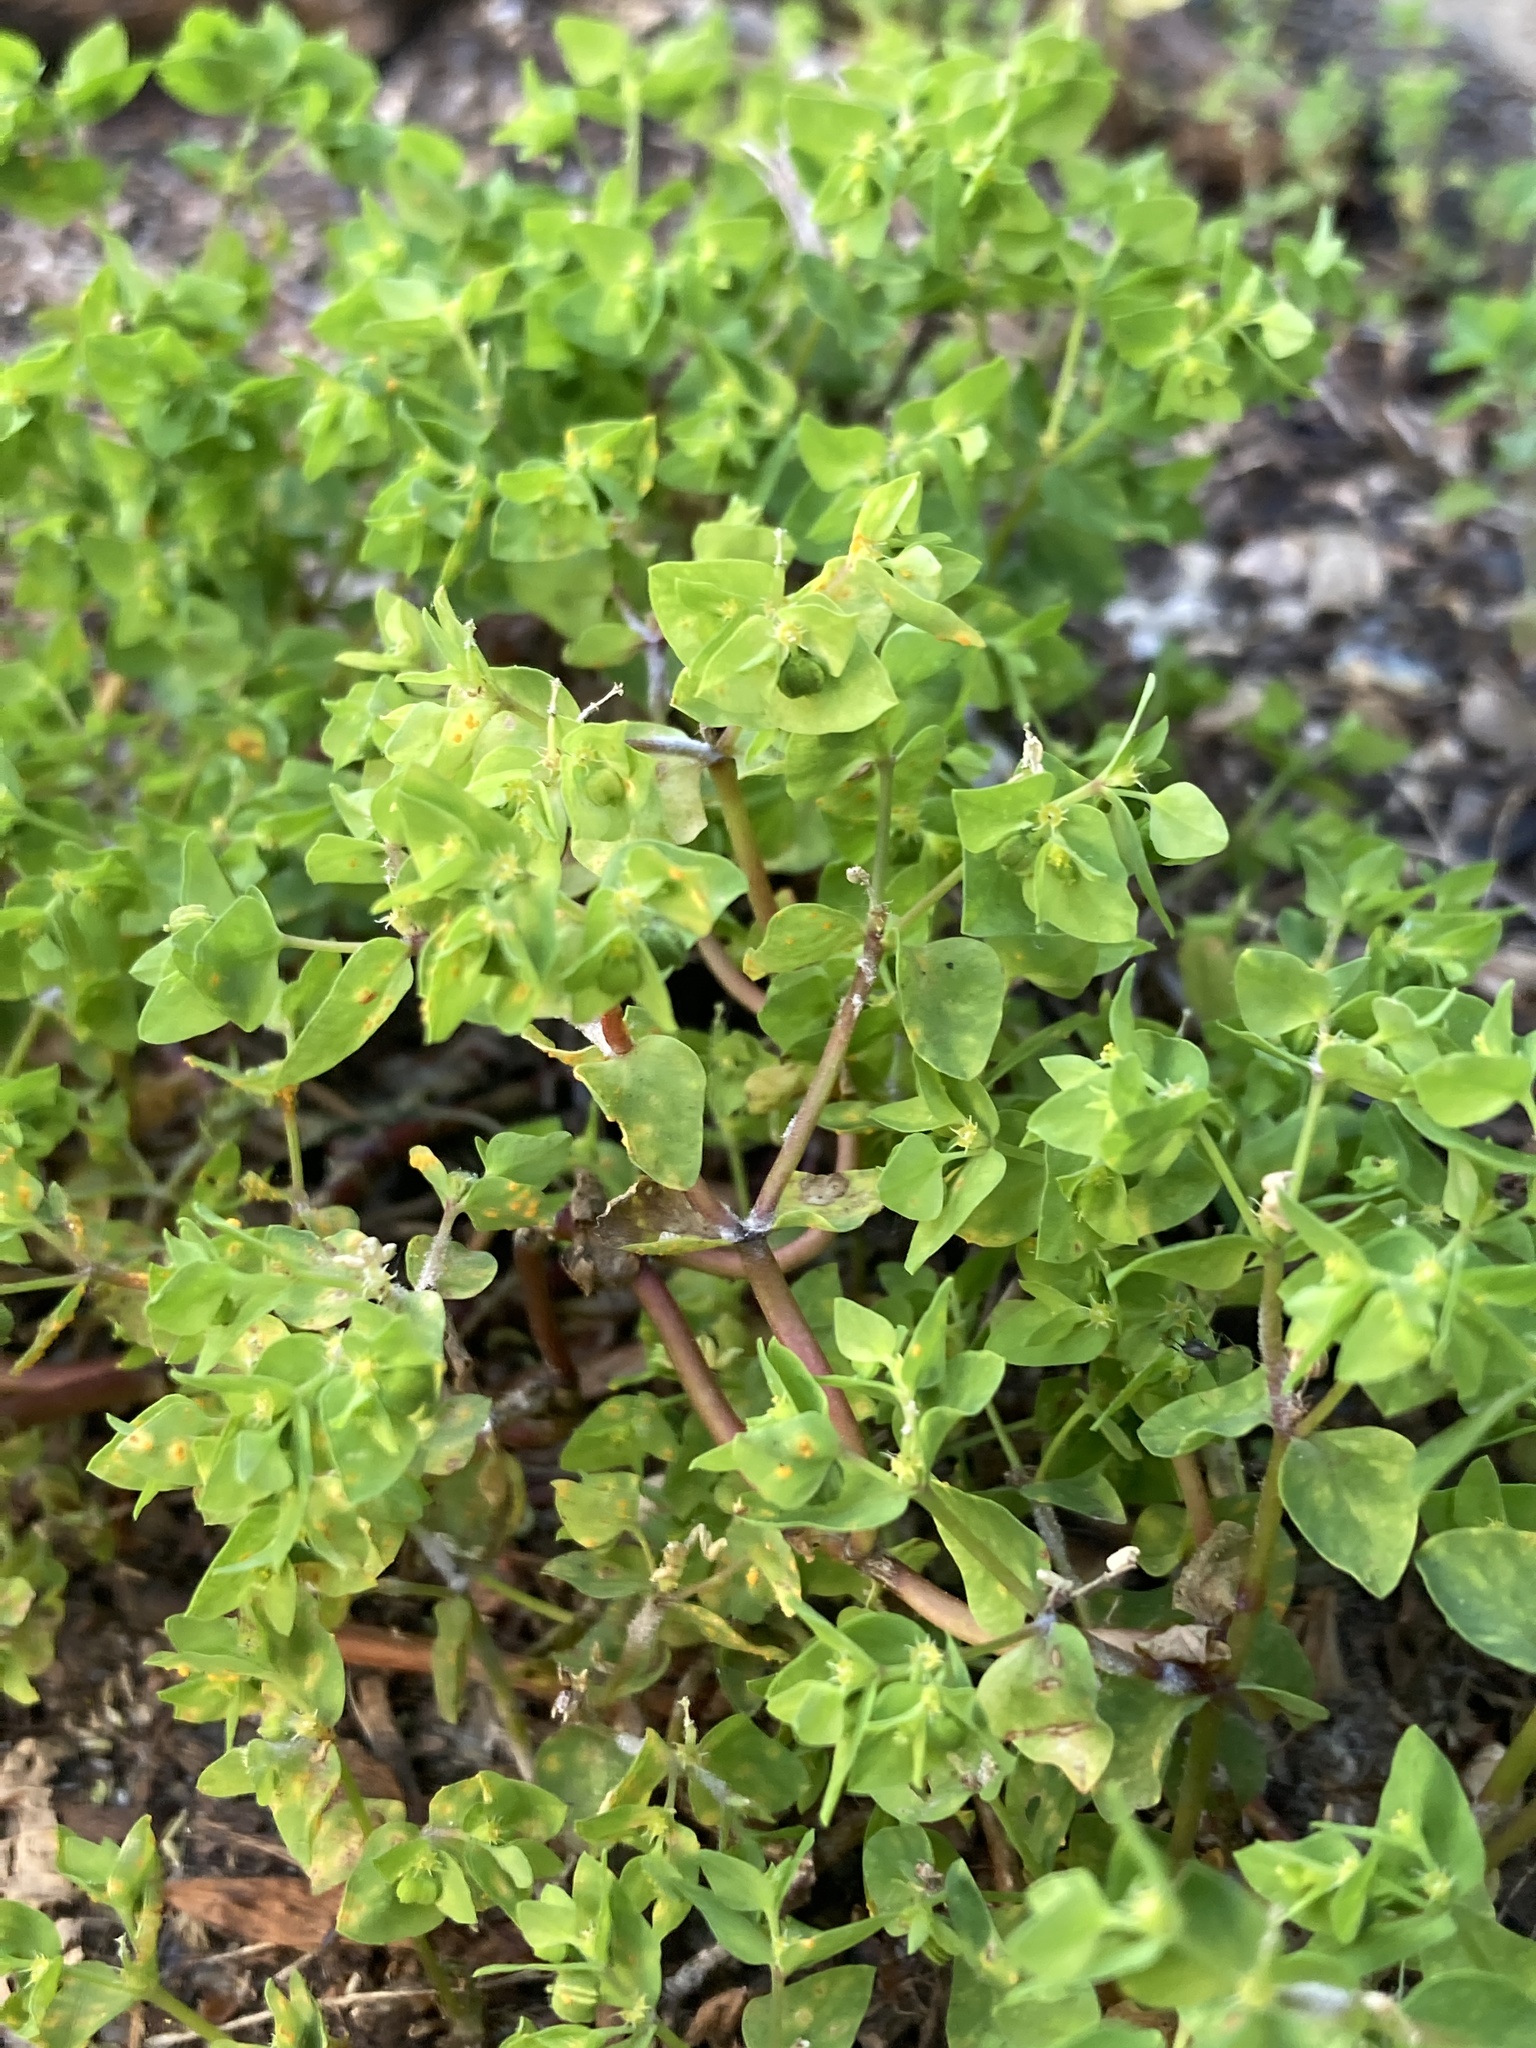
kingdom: Plantae
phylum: Tracheophyta
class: Magnoliopsida
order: Malpighiales
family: Euphorbiaceae
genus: Euphorbia
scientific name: Euphorbia peplus
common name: Petty spurge
